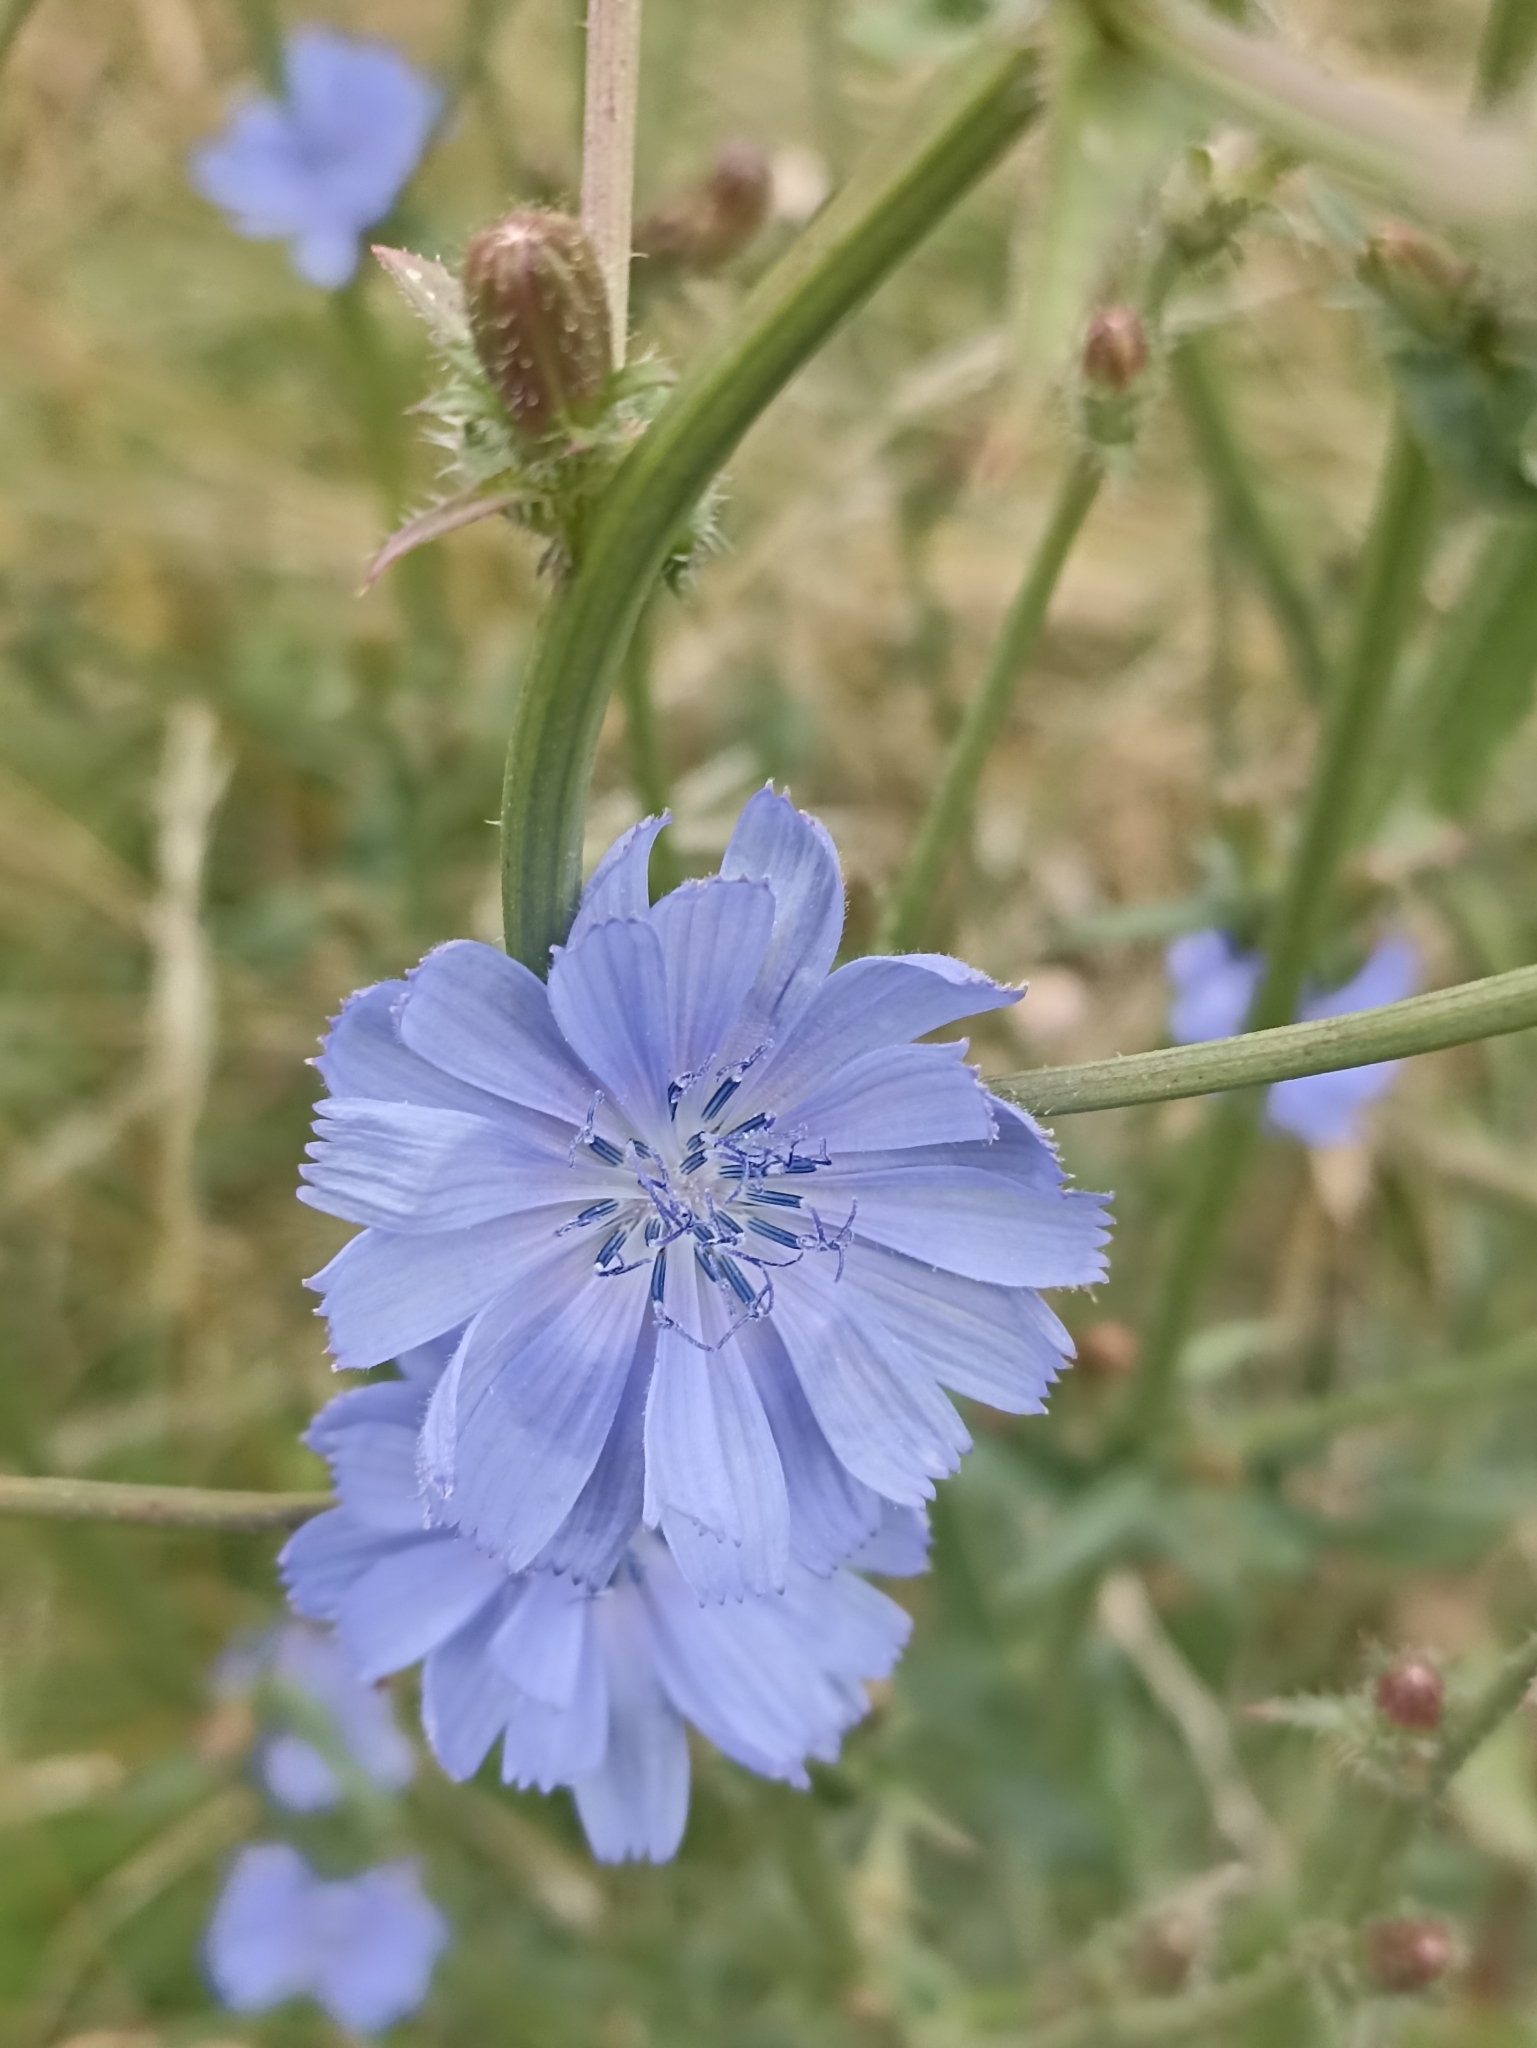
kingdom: Plantae
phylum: Tracheophyta
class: Magnoliopsida
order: Asterales
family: Asteraceae
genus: Cichorium
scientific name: Cichorium intybus
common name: Chicory
